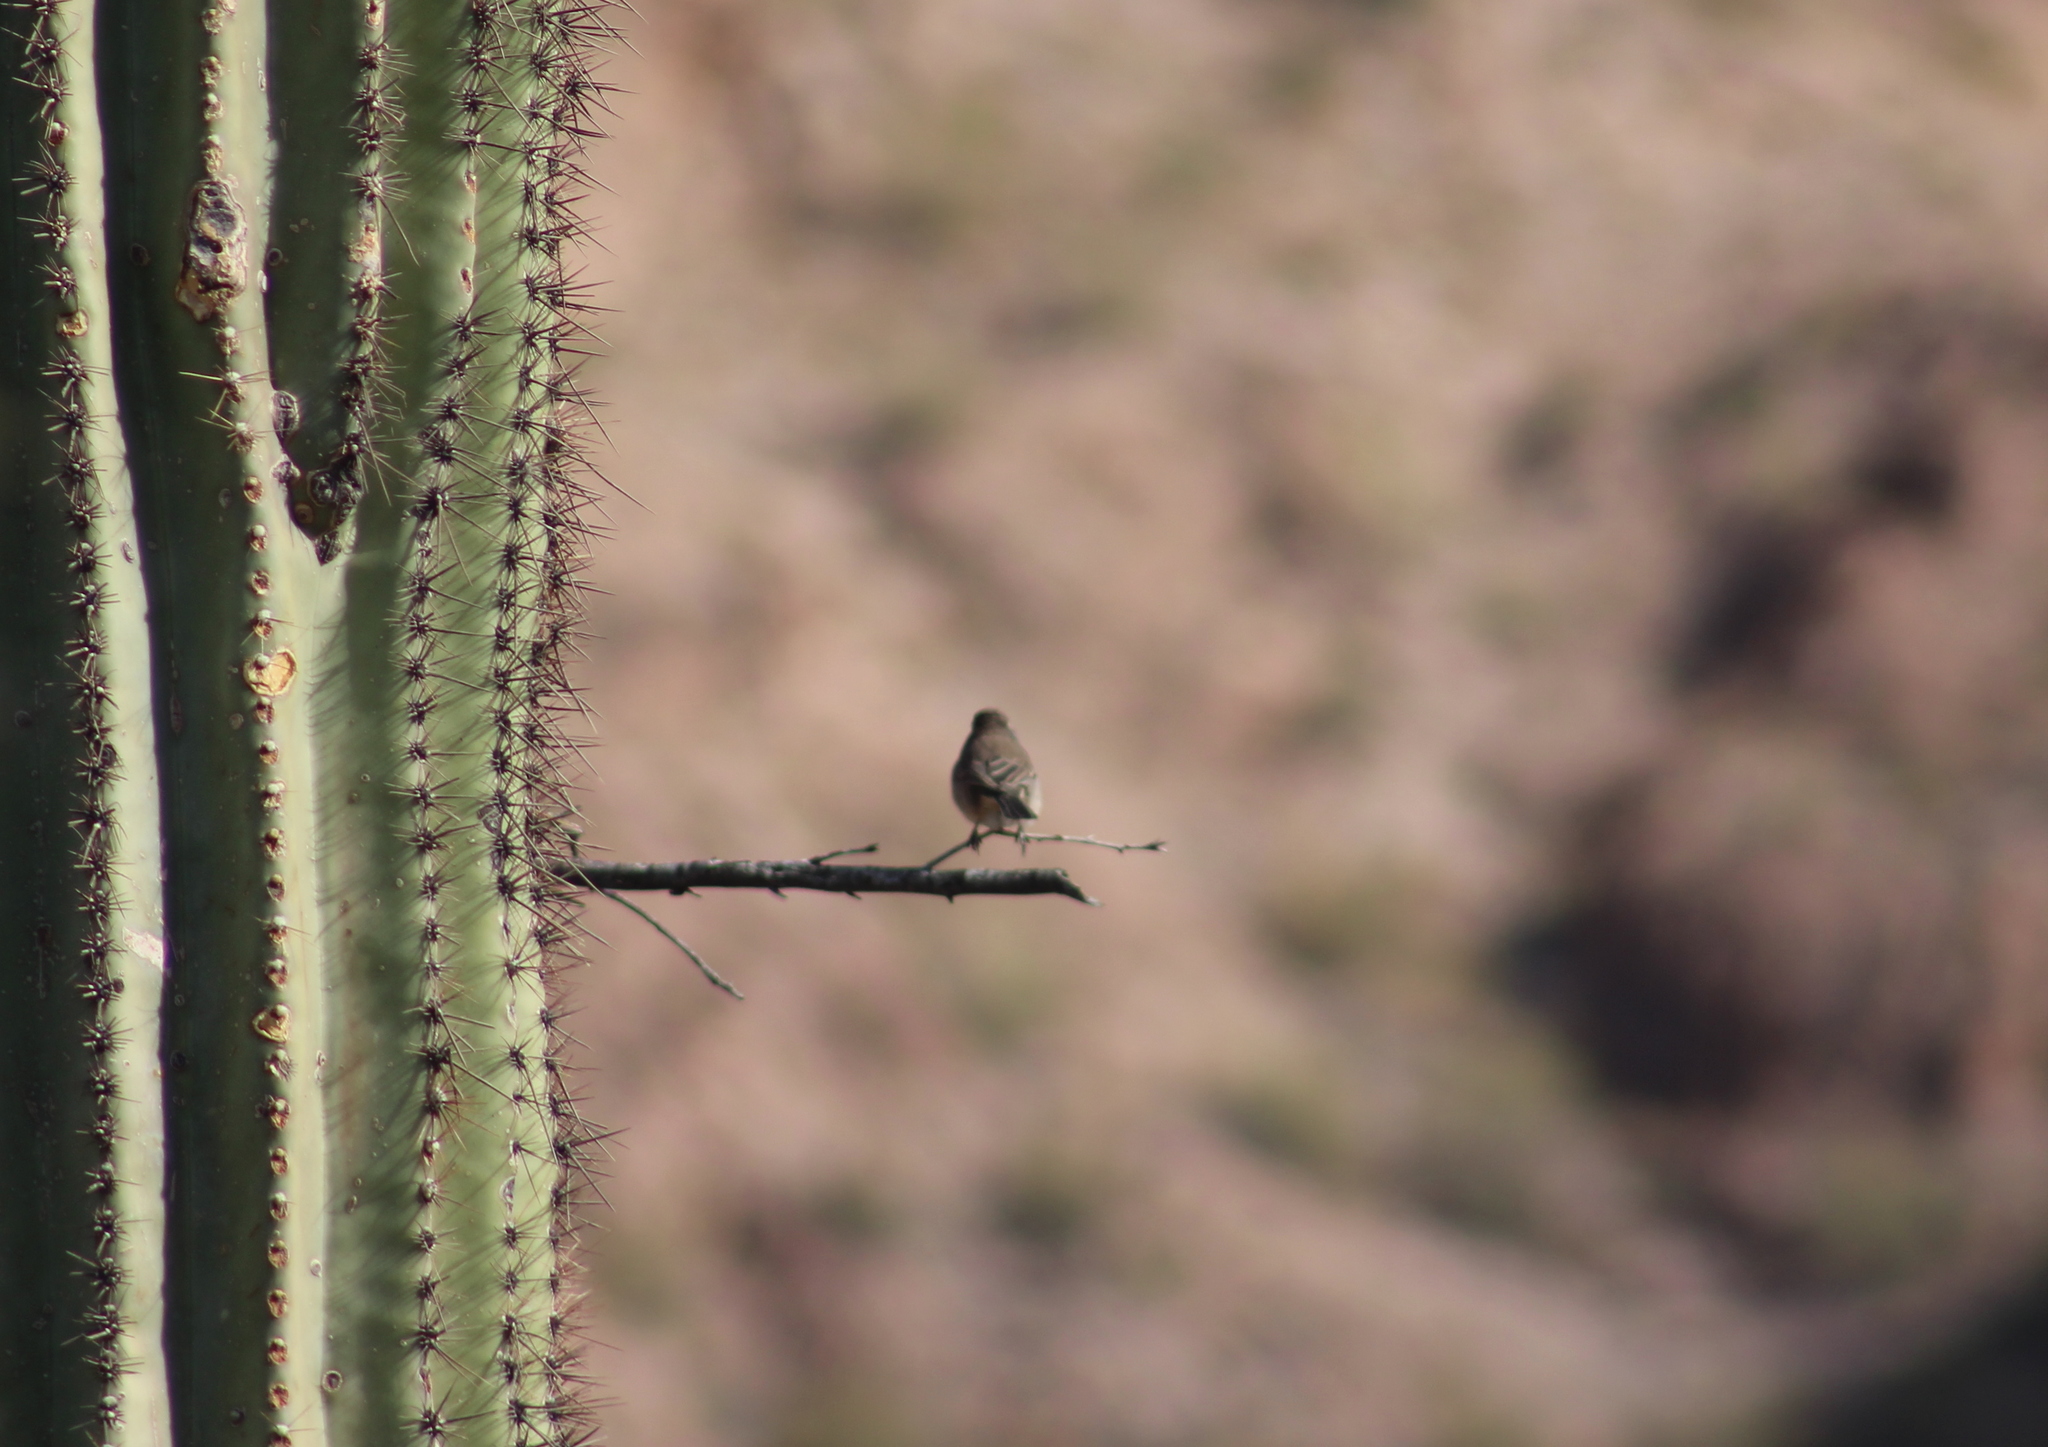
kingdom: Animalia
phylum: Chordata
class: Aves
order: Passeriformes
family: Passerellidae
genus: Amphispiza
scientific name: Amphispiza bilineata
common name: Black-throated sparrow
